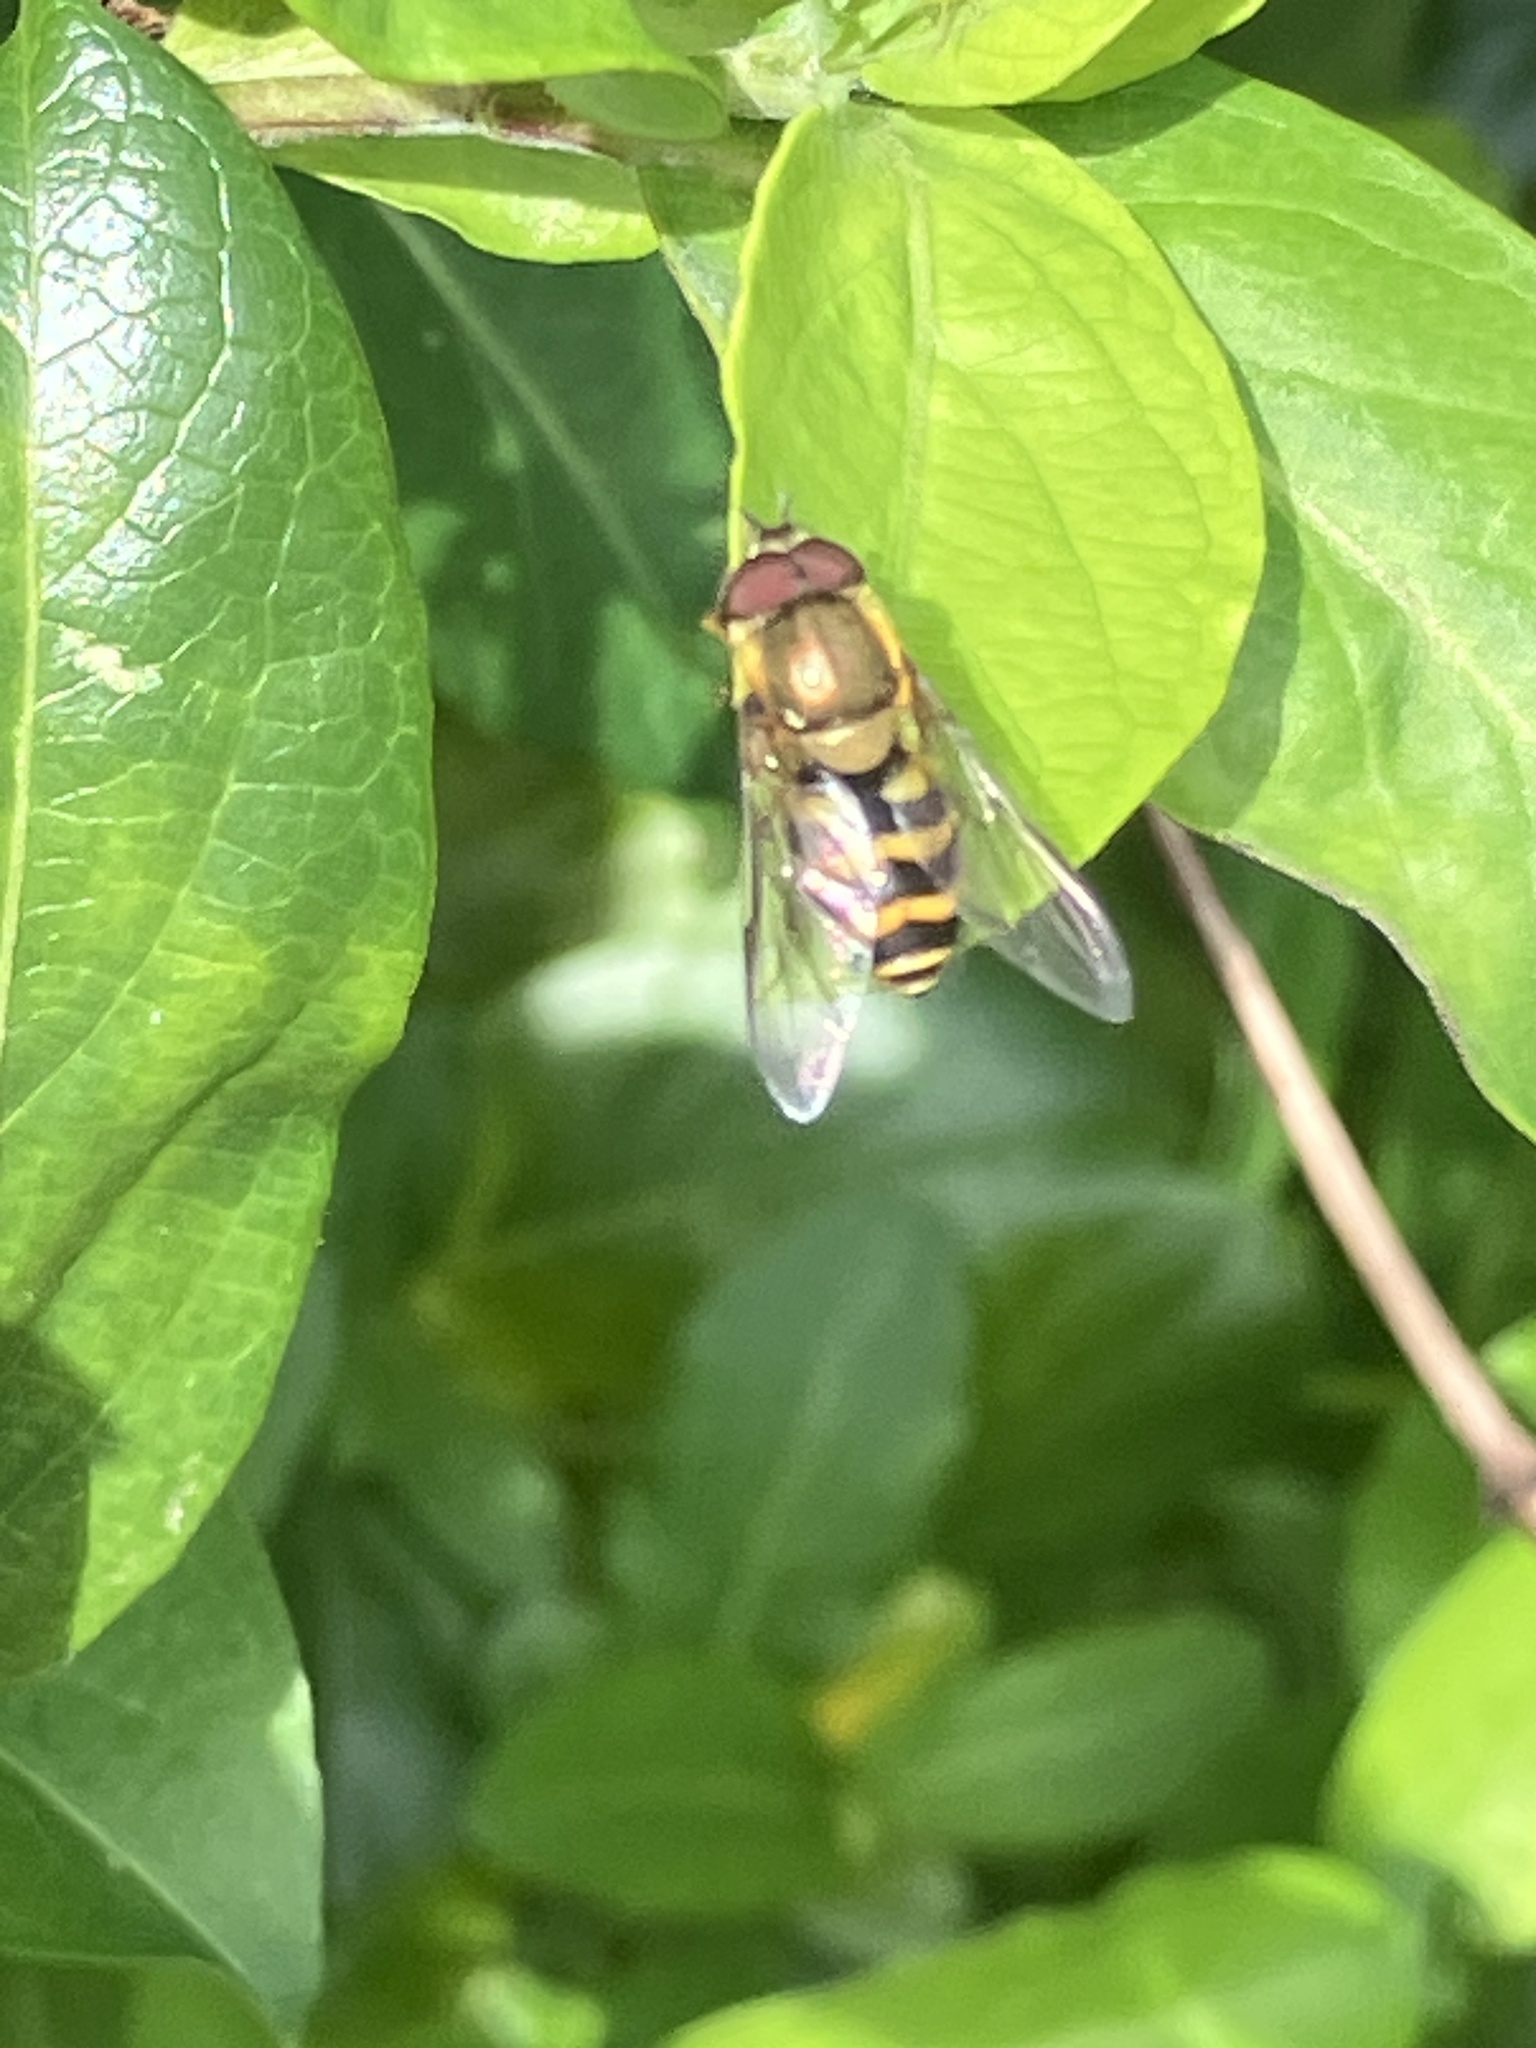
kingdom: Animalia
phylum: Arthropoda
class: Insecta
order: Diptera
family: Syrphidae
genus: Syrphus
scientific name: Syrphus
